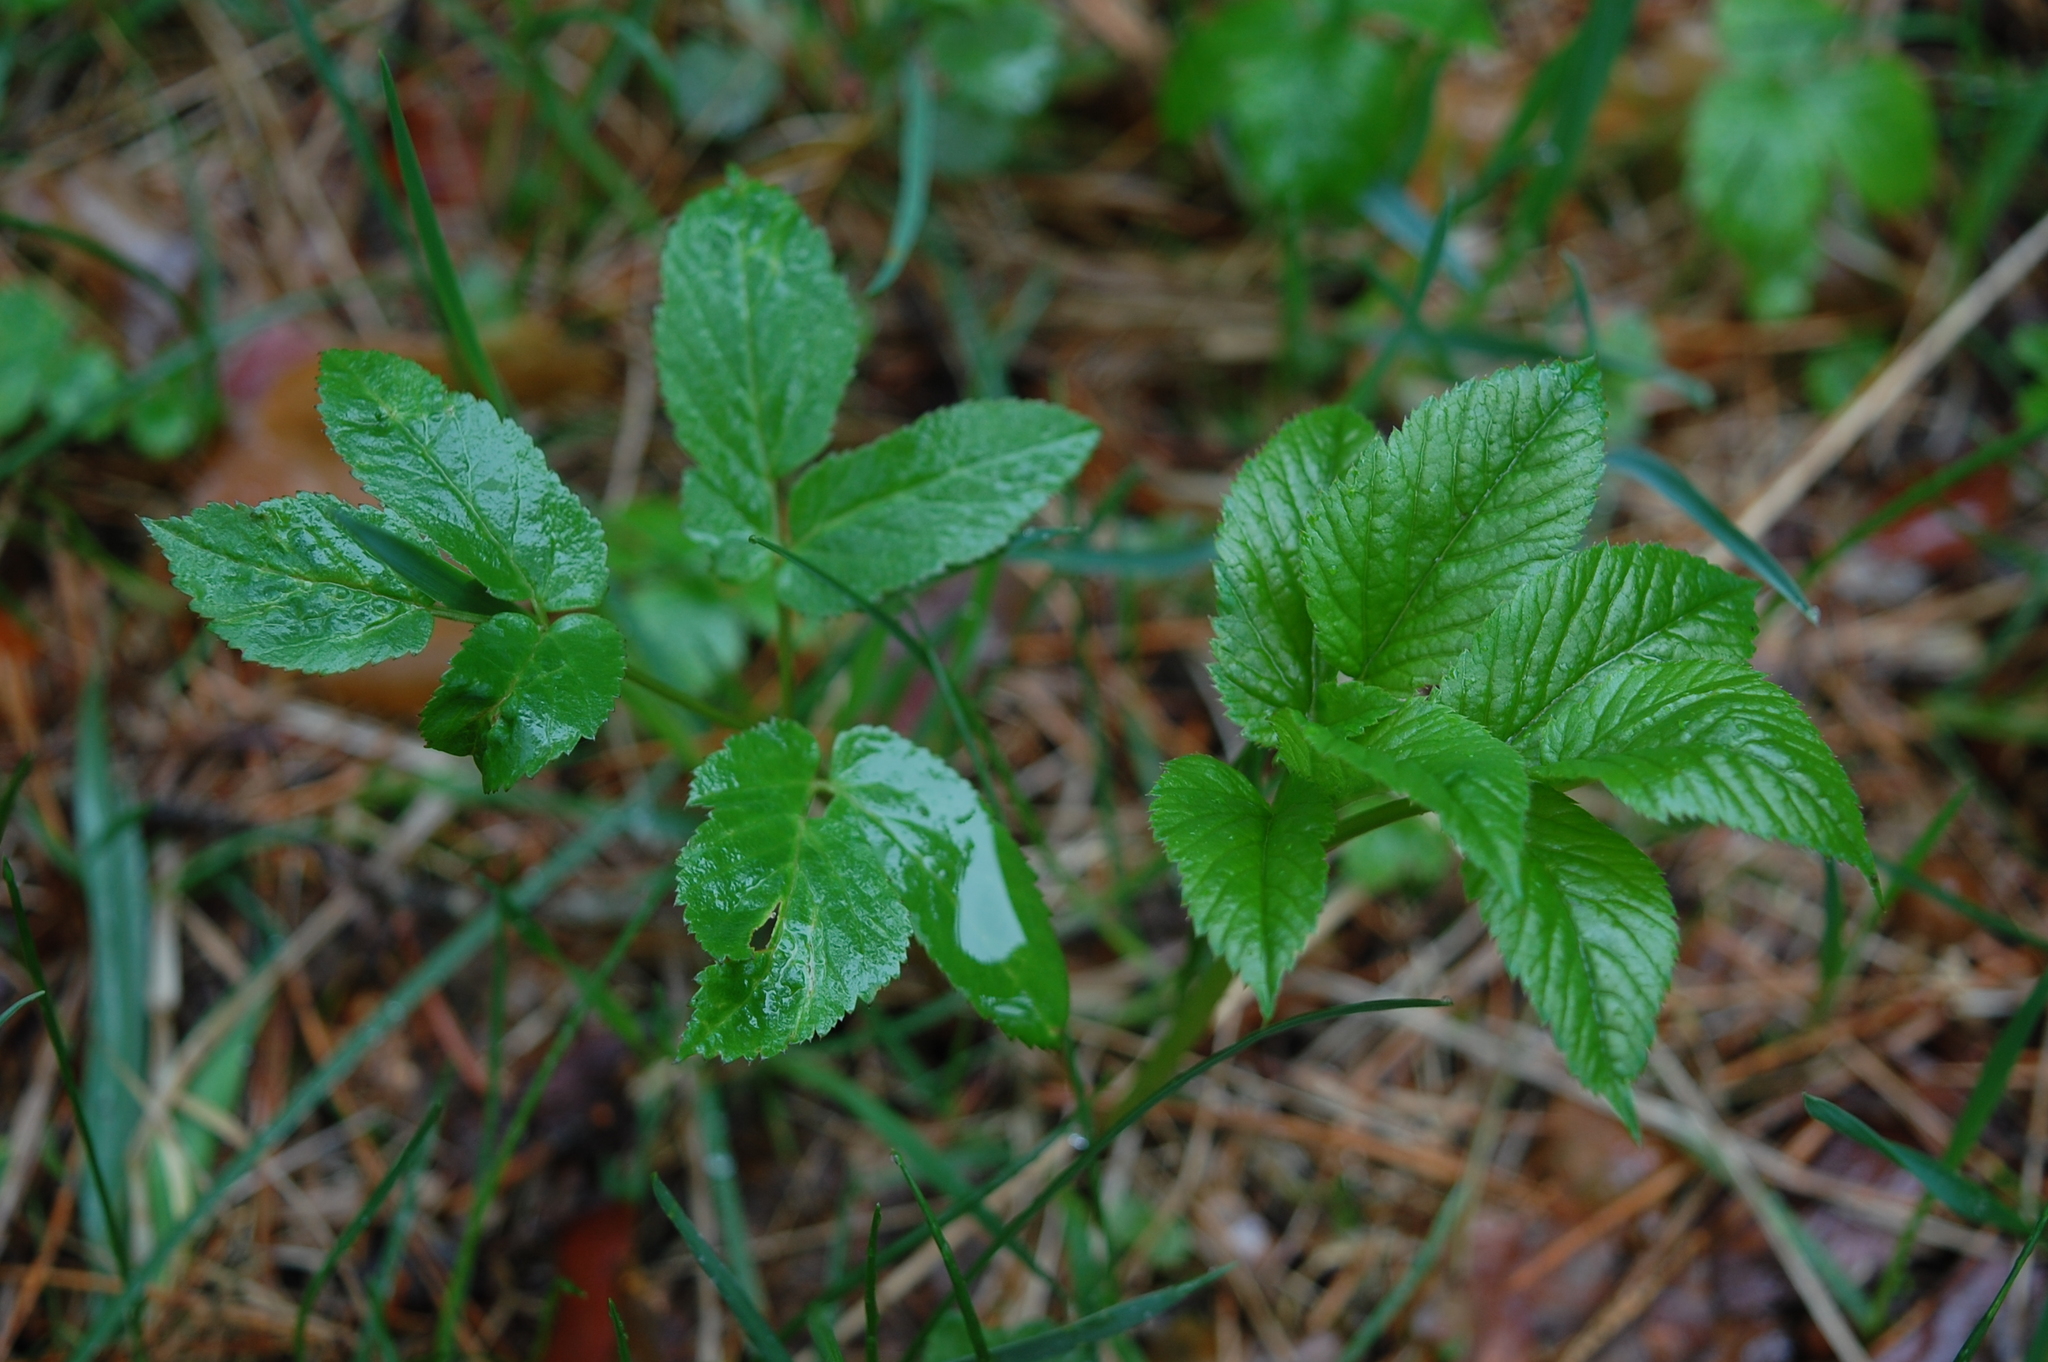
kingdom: Plantae
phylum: Tracheophyta
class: Magnoliopsida
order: Apiales
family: Apiaceae
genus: Aegopodium
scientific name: Aegopodium podagraria
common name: Ground-elder
